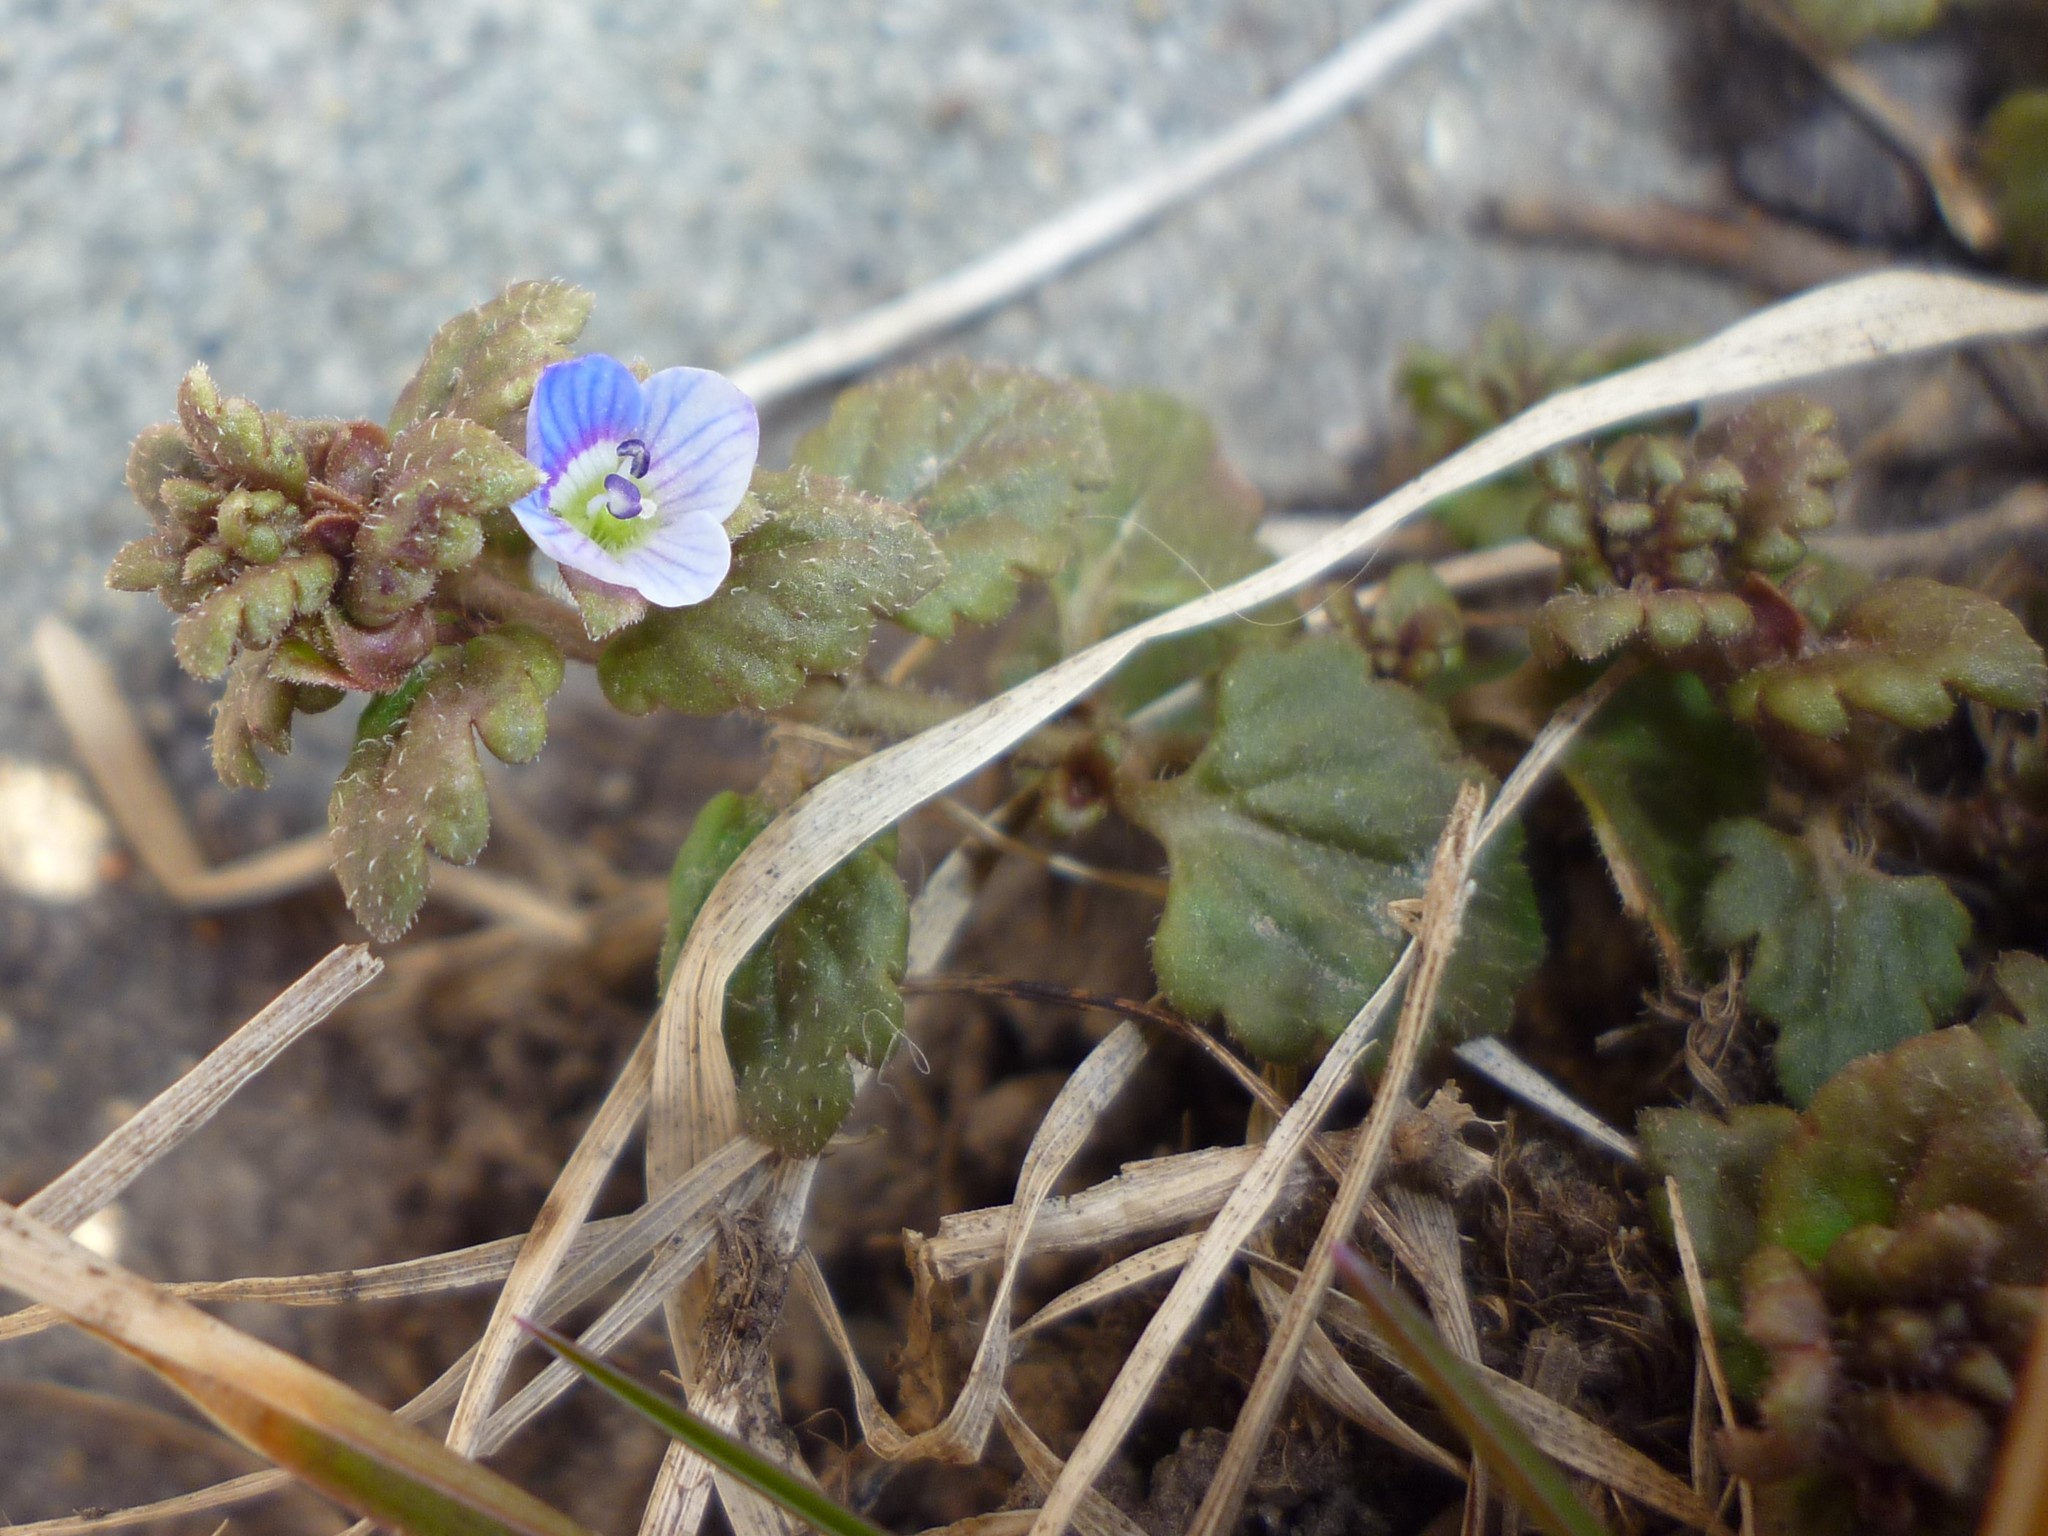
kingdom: Plantae
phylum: Tracheophyta
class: Magnoliopsida
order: Lamiales
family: Plantaginaceae
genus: Veronica
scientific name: Veronica persica
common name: Common field-speedwell
